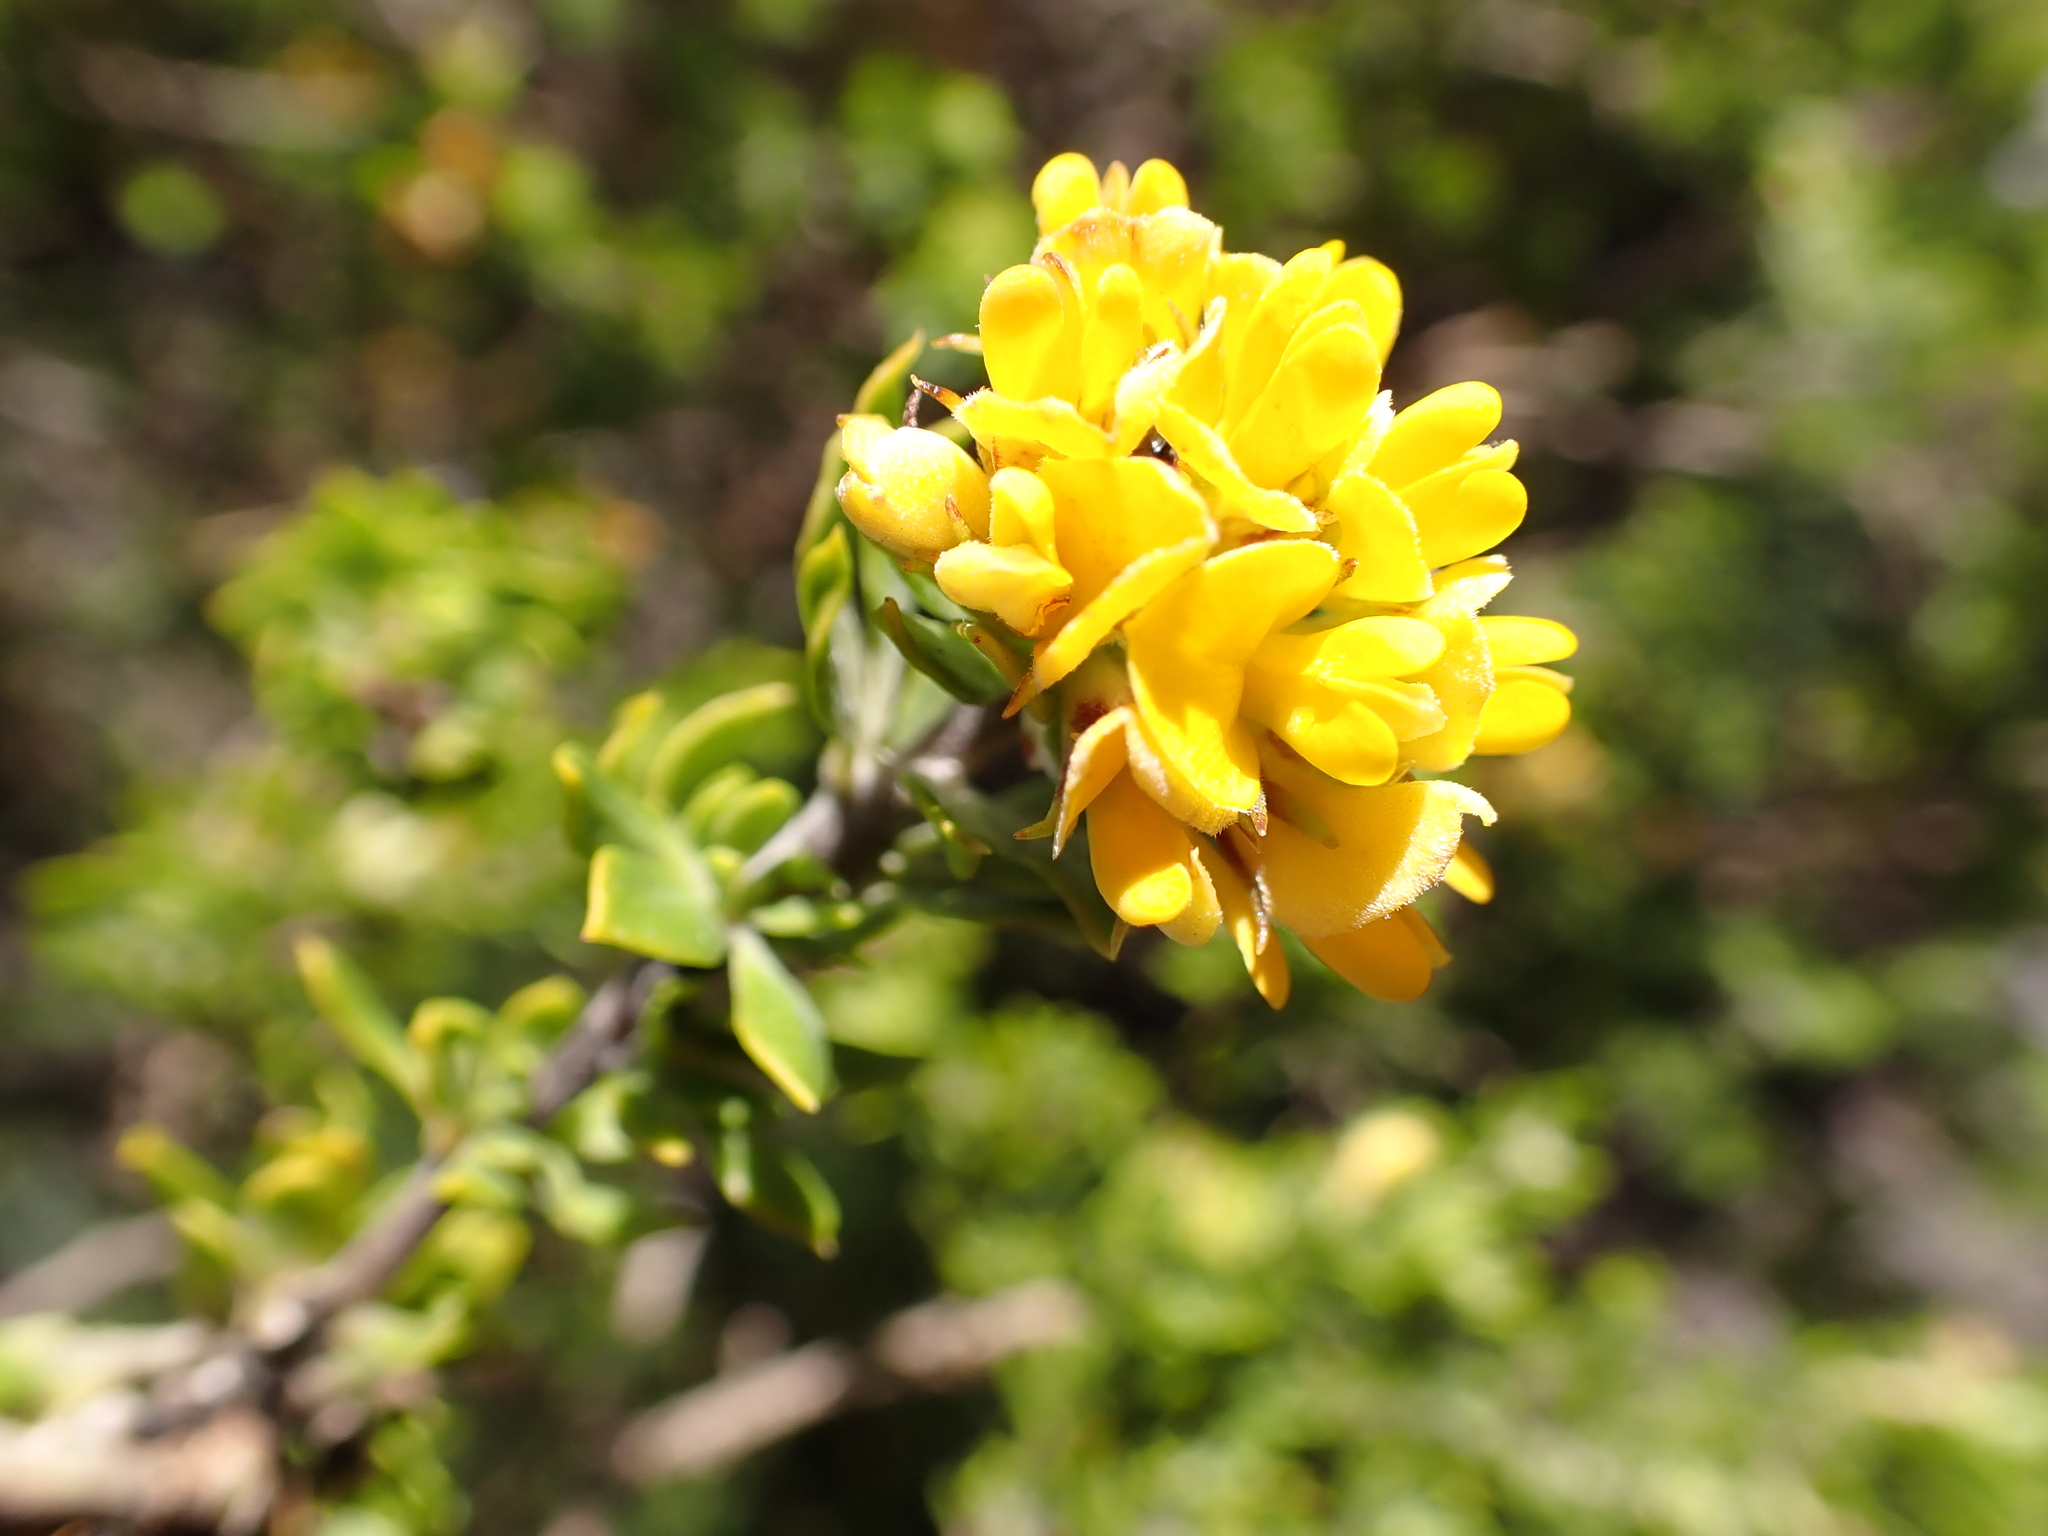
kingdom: Plantae
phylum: Tracheophyta
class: Magnoliopsida
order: Fabales
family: Fabaceae
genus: Aspalathus
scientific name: Aspalathus securifolia
